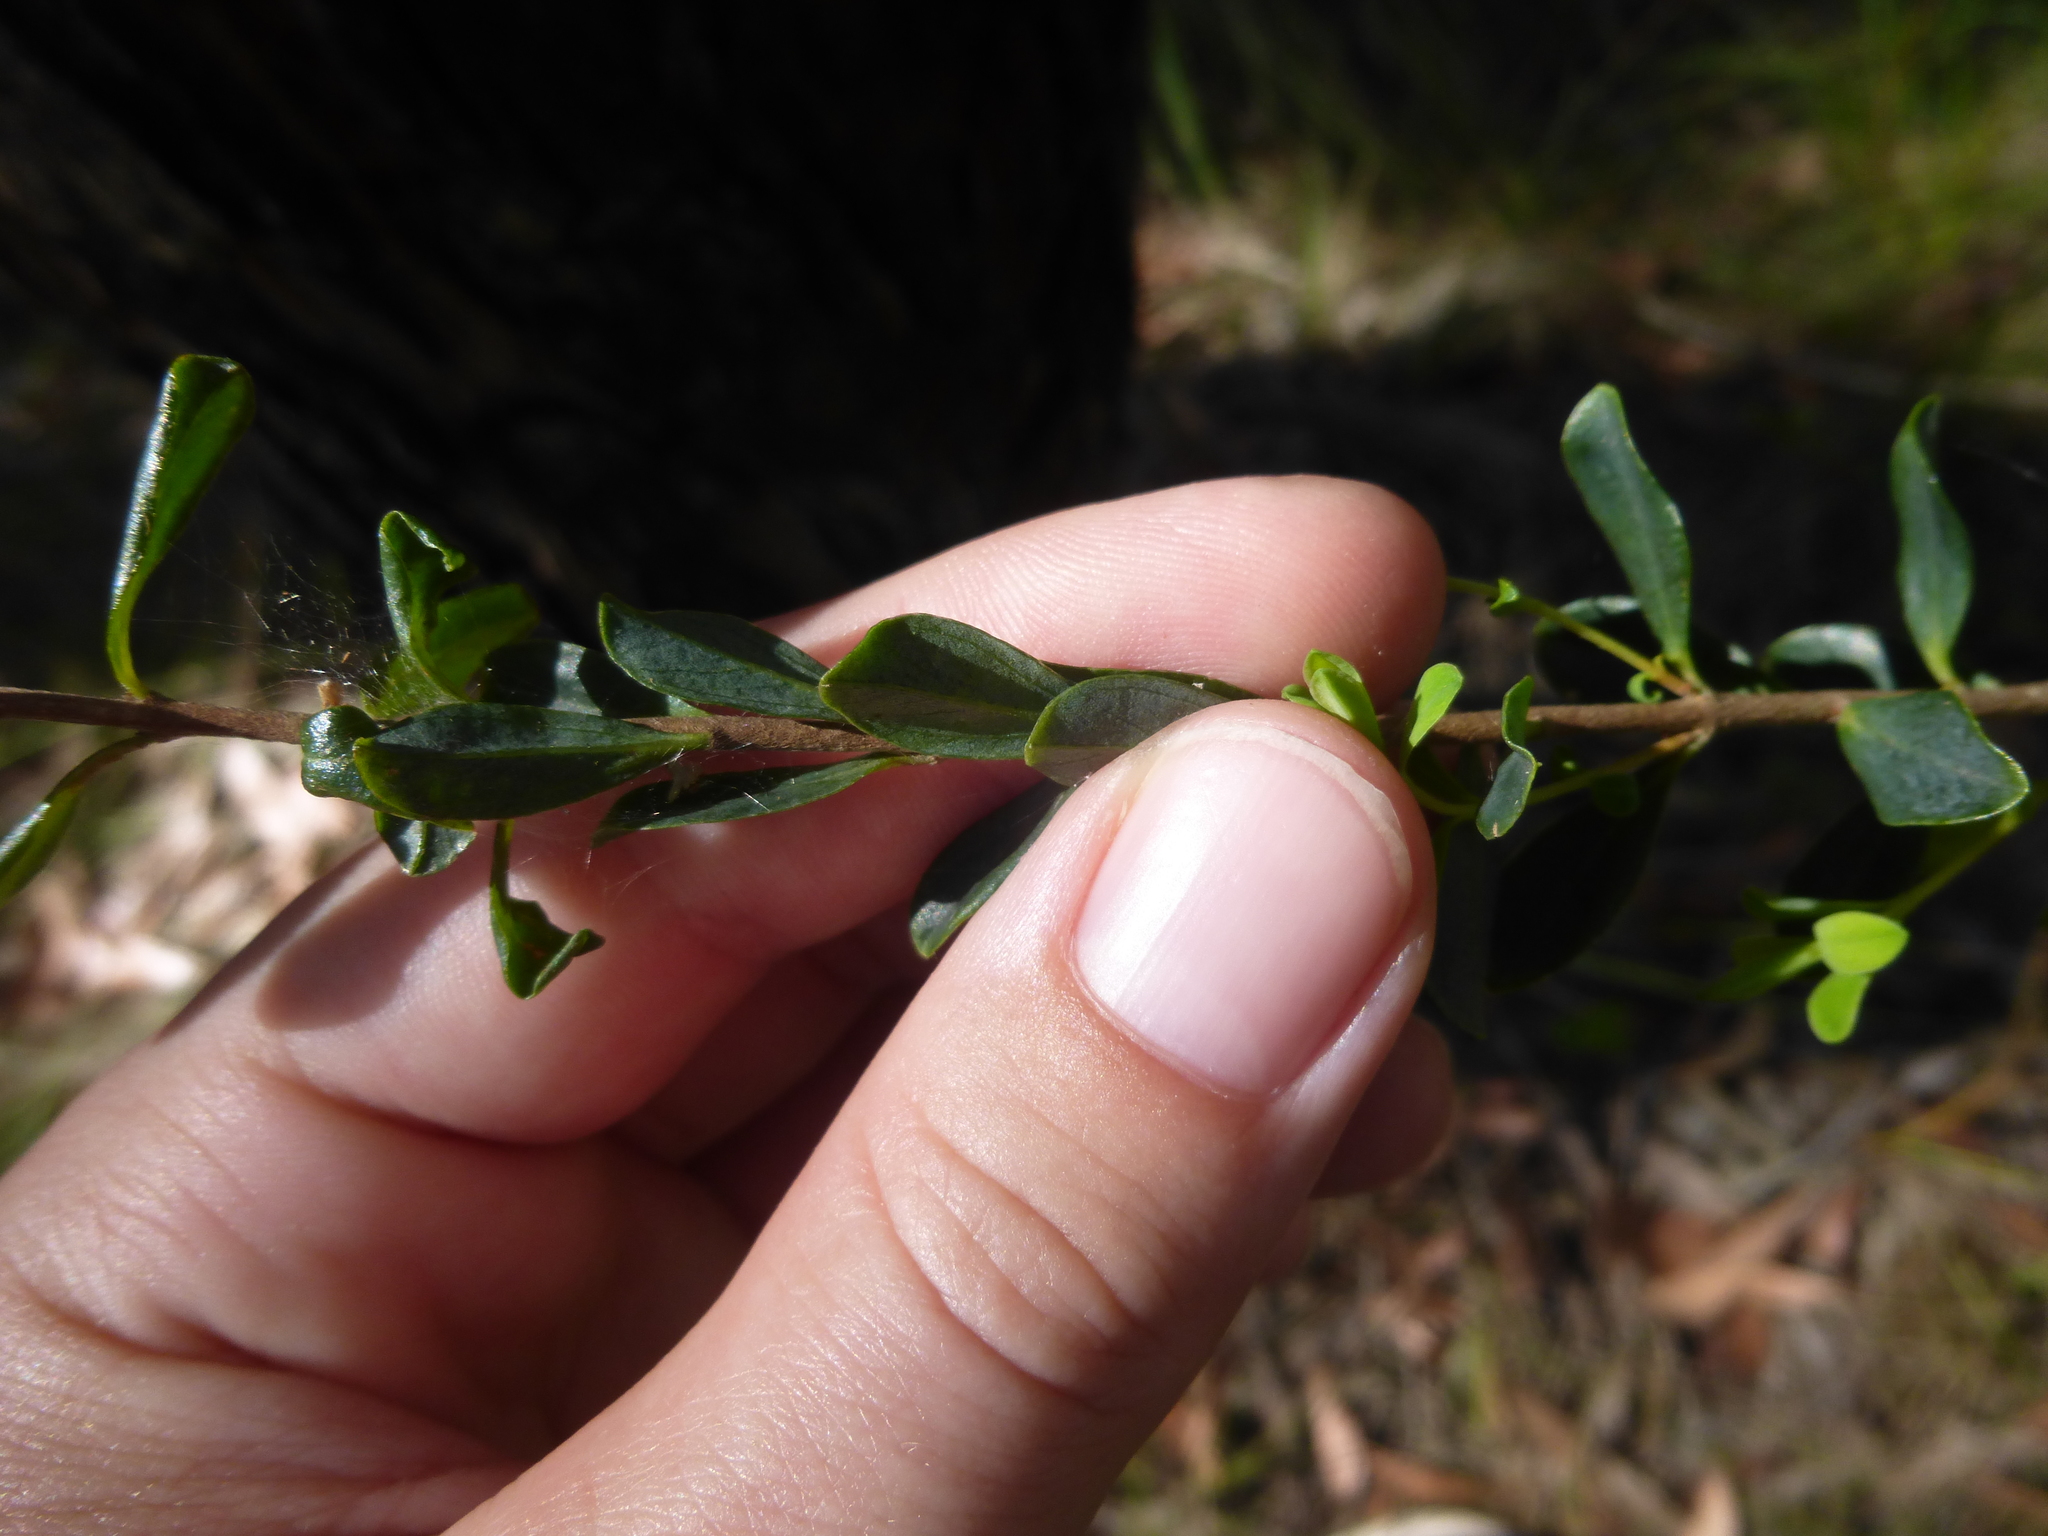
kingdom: Plantae
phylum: Tracheophyta
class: Magnoliopsida
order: Malvales
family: Thymelaeaceae
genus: Pimelea
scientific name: Pimelea flava
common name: Yellow riceflower
